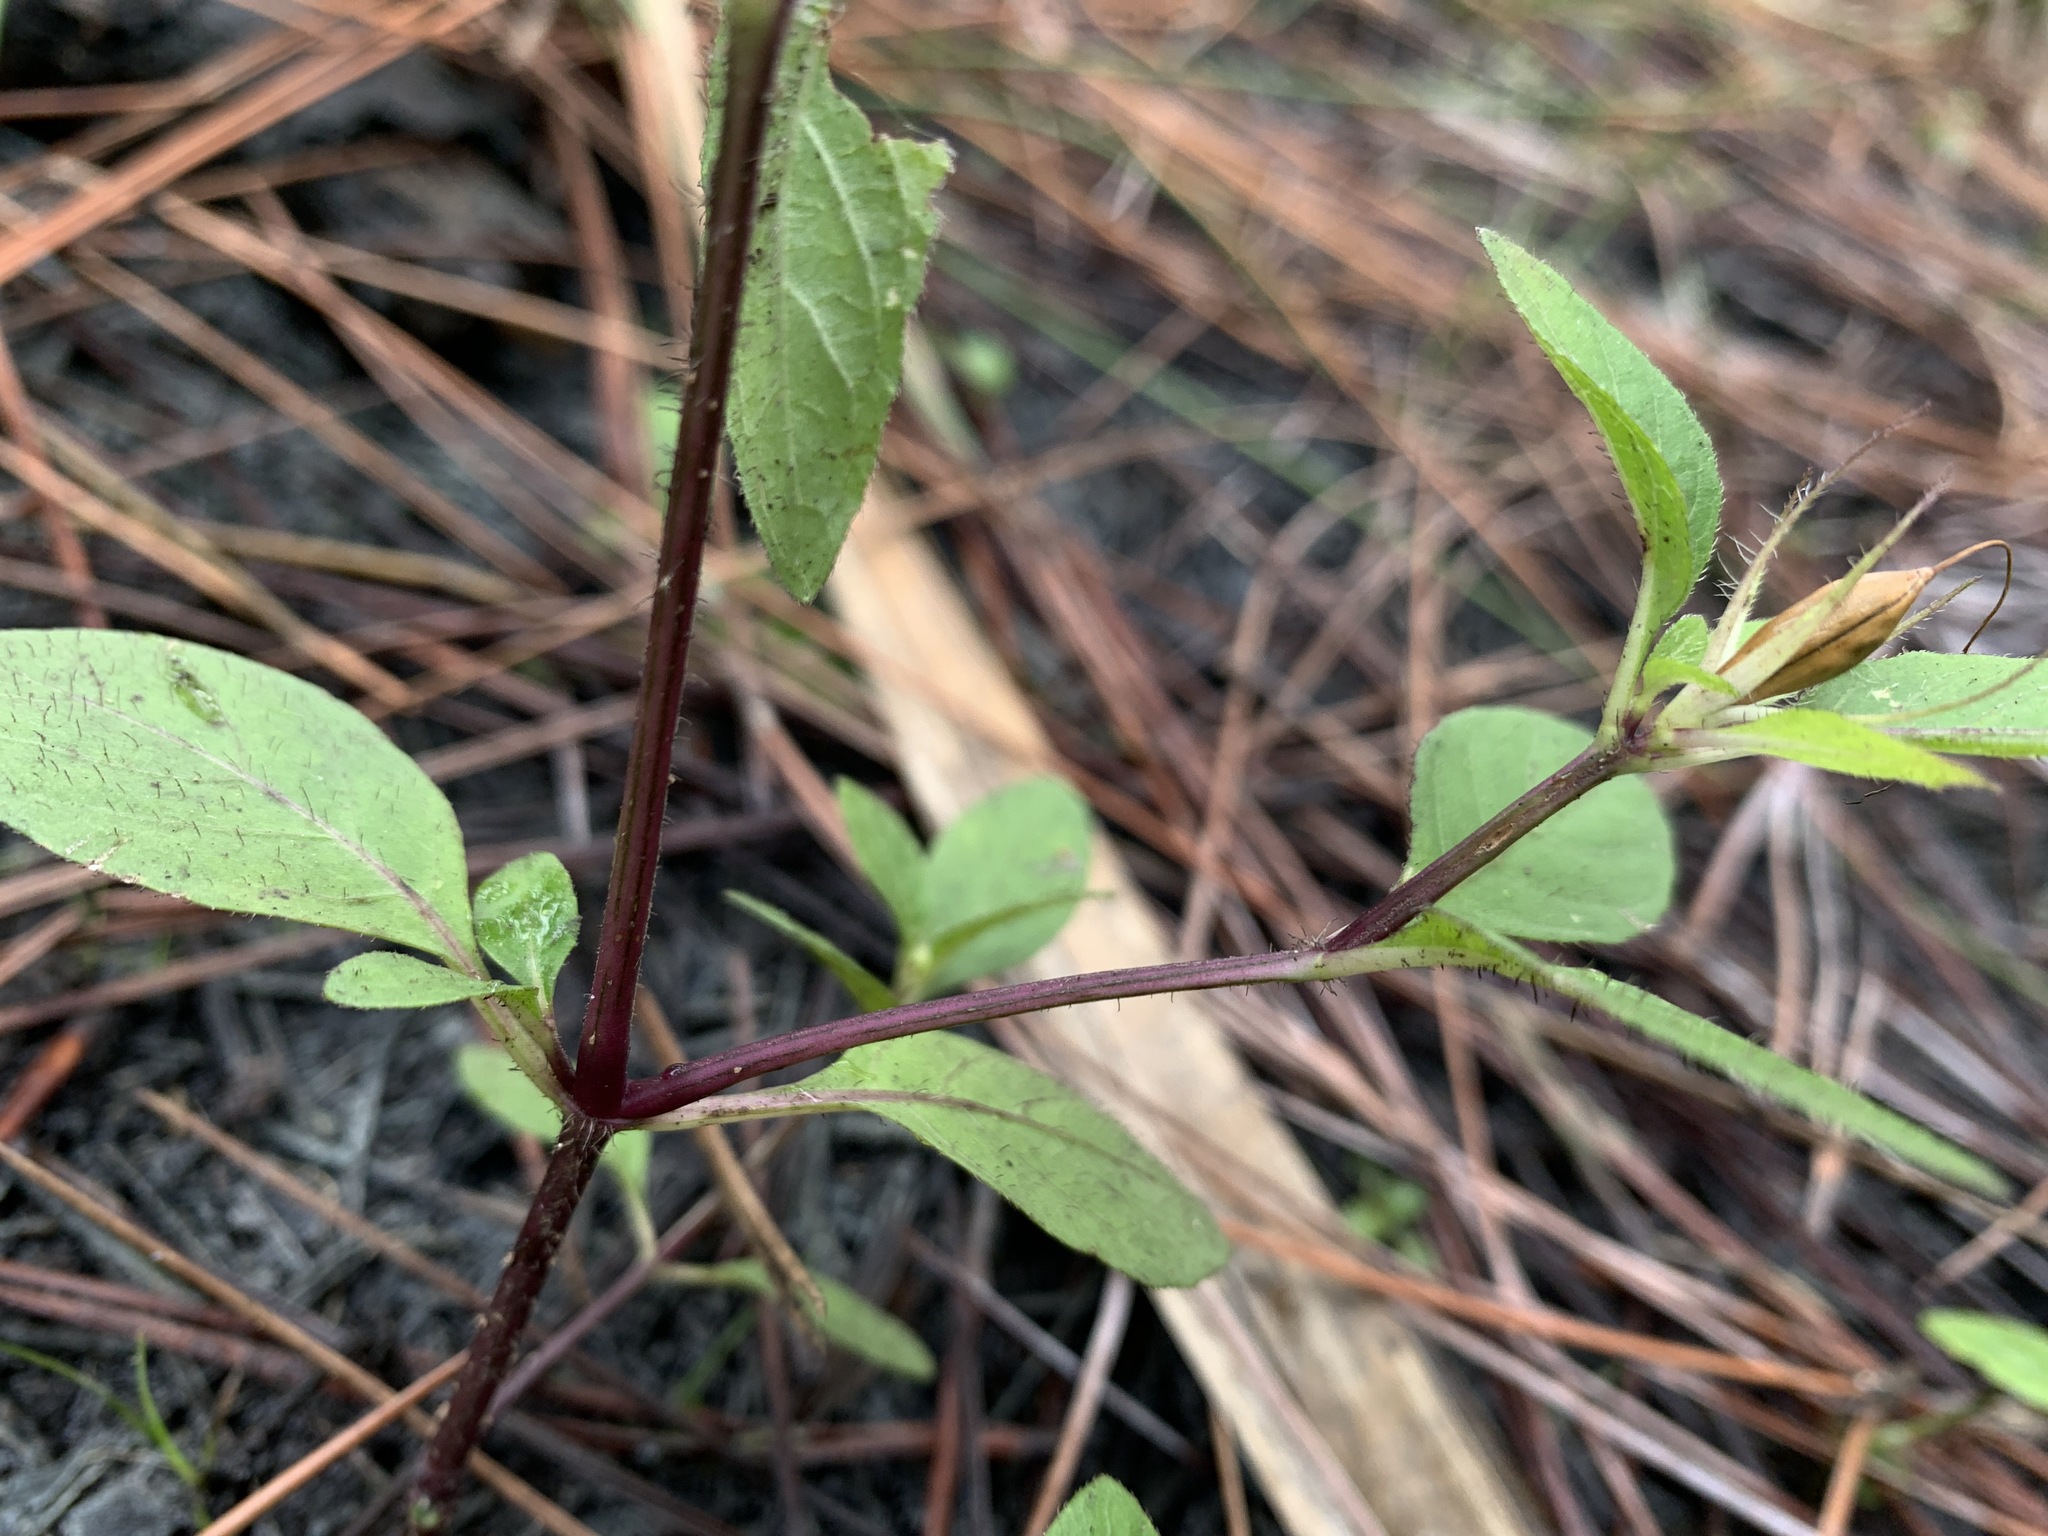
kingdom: Plantae
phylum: Tracheophyta
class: Magnoliopsida
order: Lamiales
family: Acanthaceae
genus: Ruellia
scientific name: Ruellia caroliniensis
